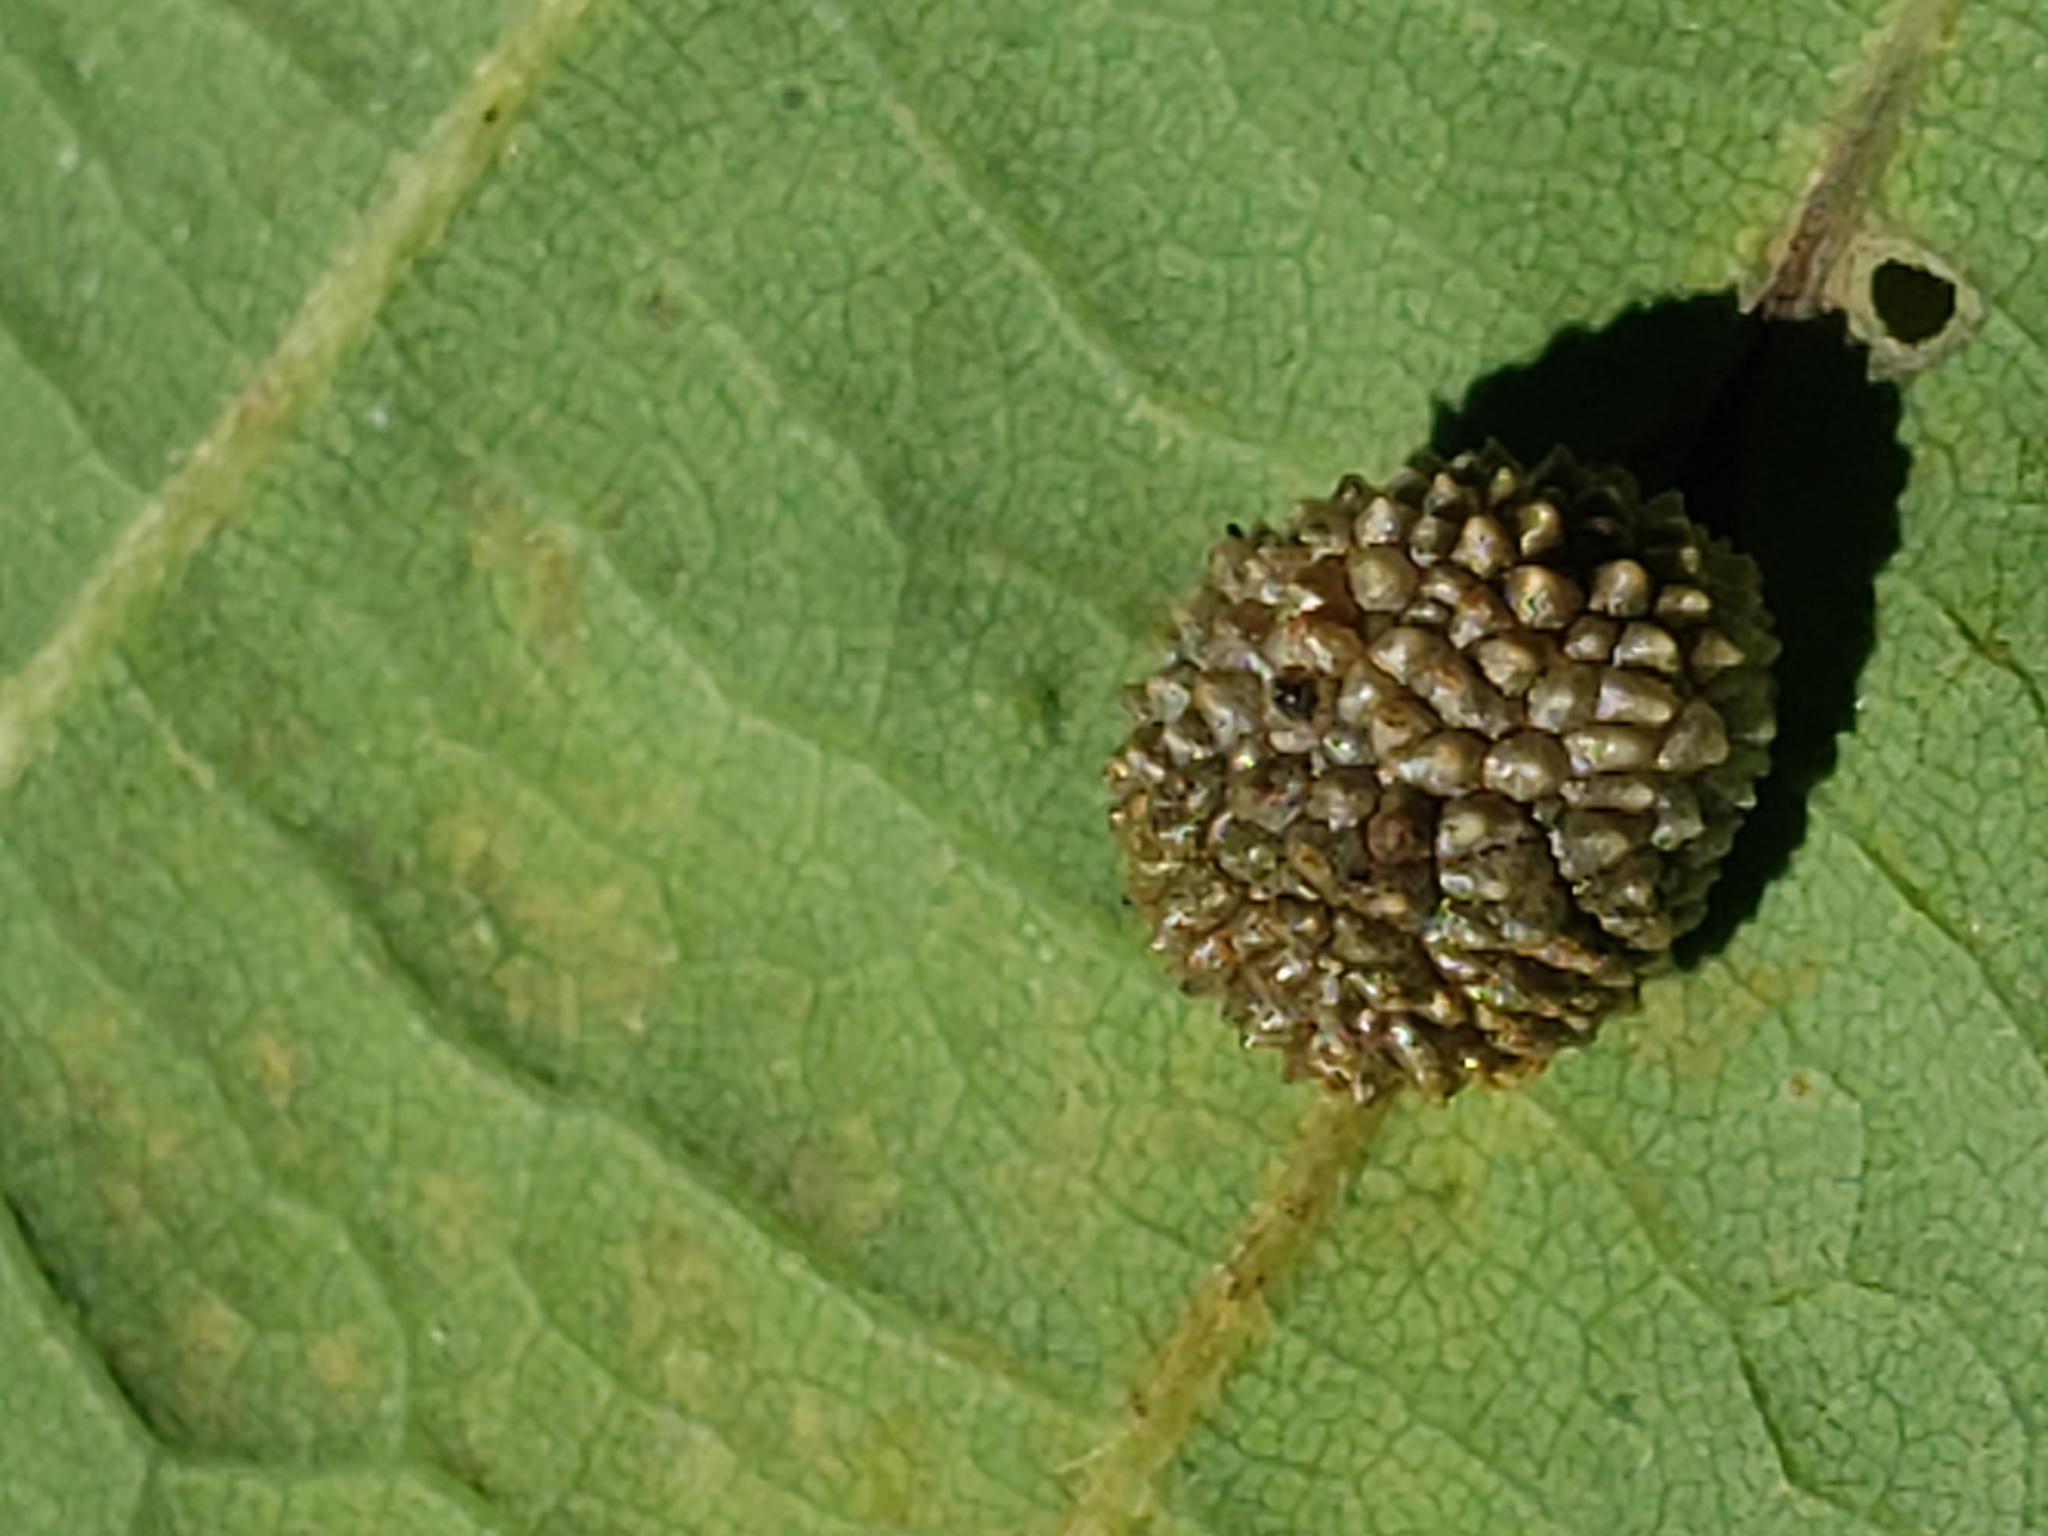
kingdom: Animalia
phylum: Arthropoda
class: Insecta
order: Hymenoptera
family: Cynipidae
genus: Acraspis
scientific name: Acraspis quercushirta
